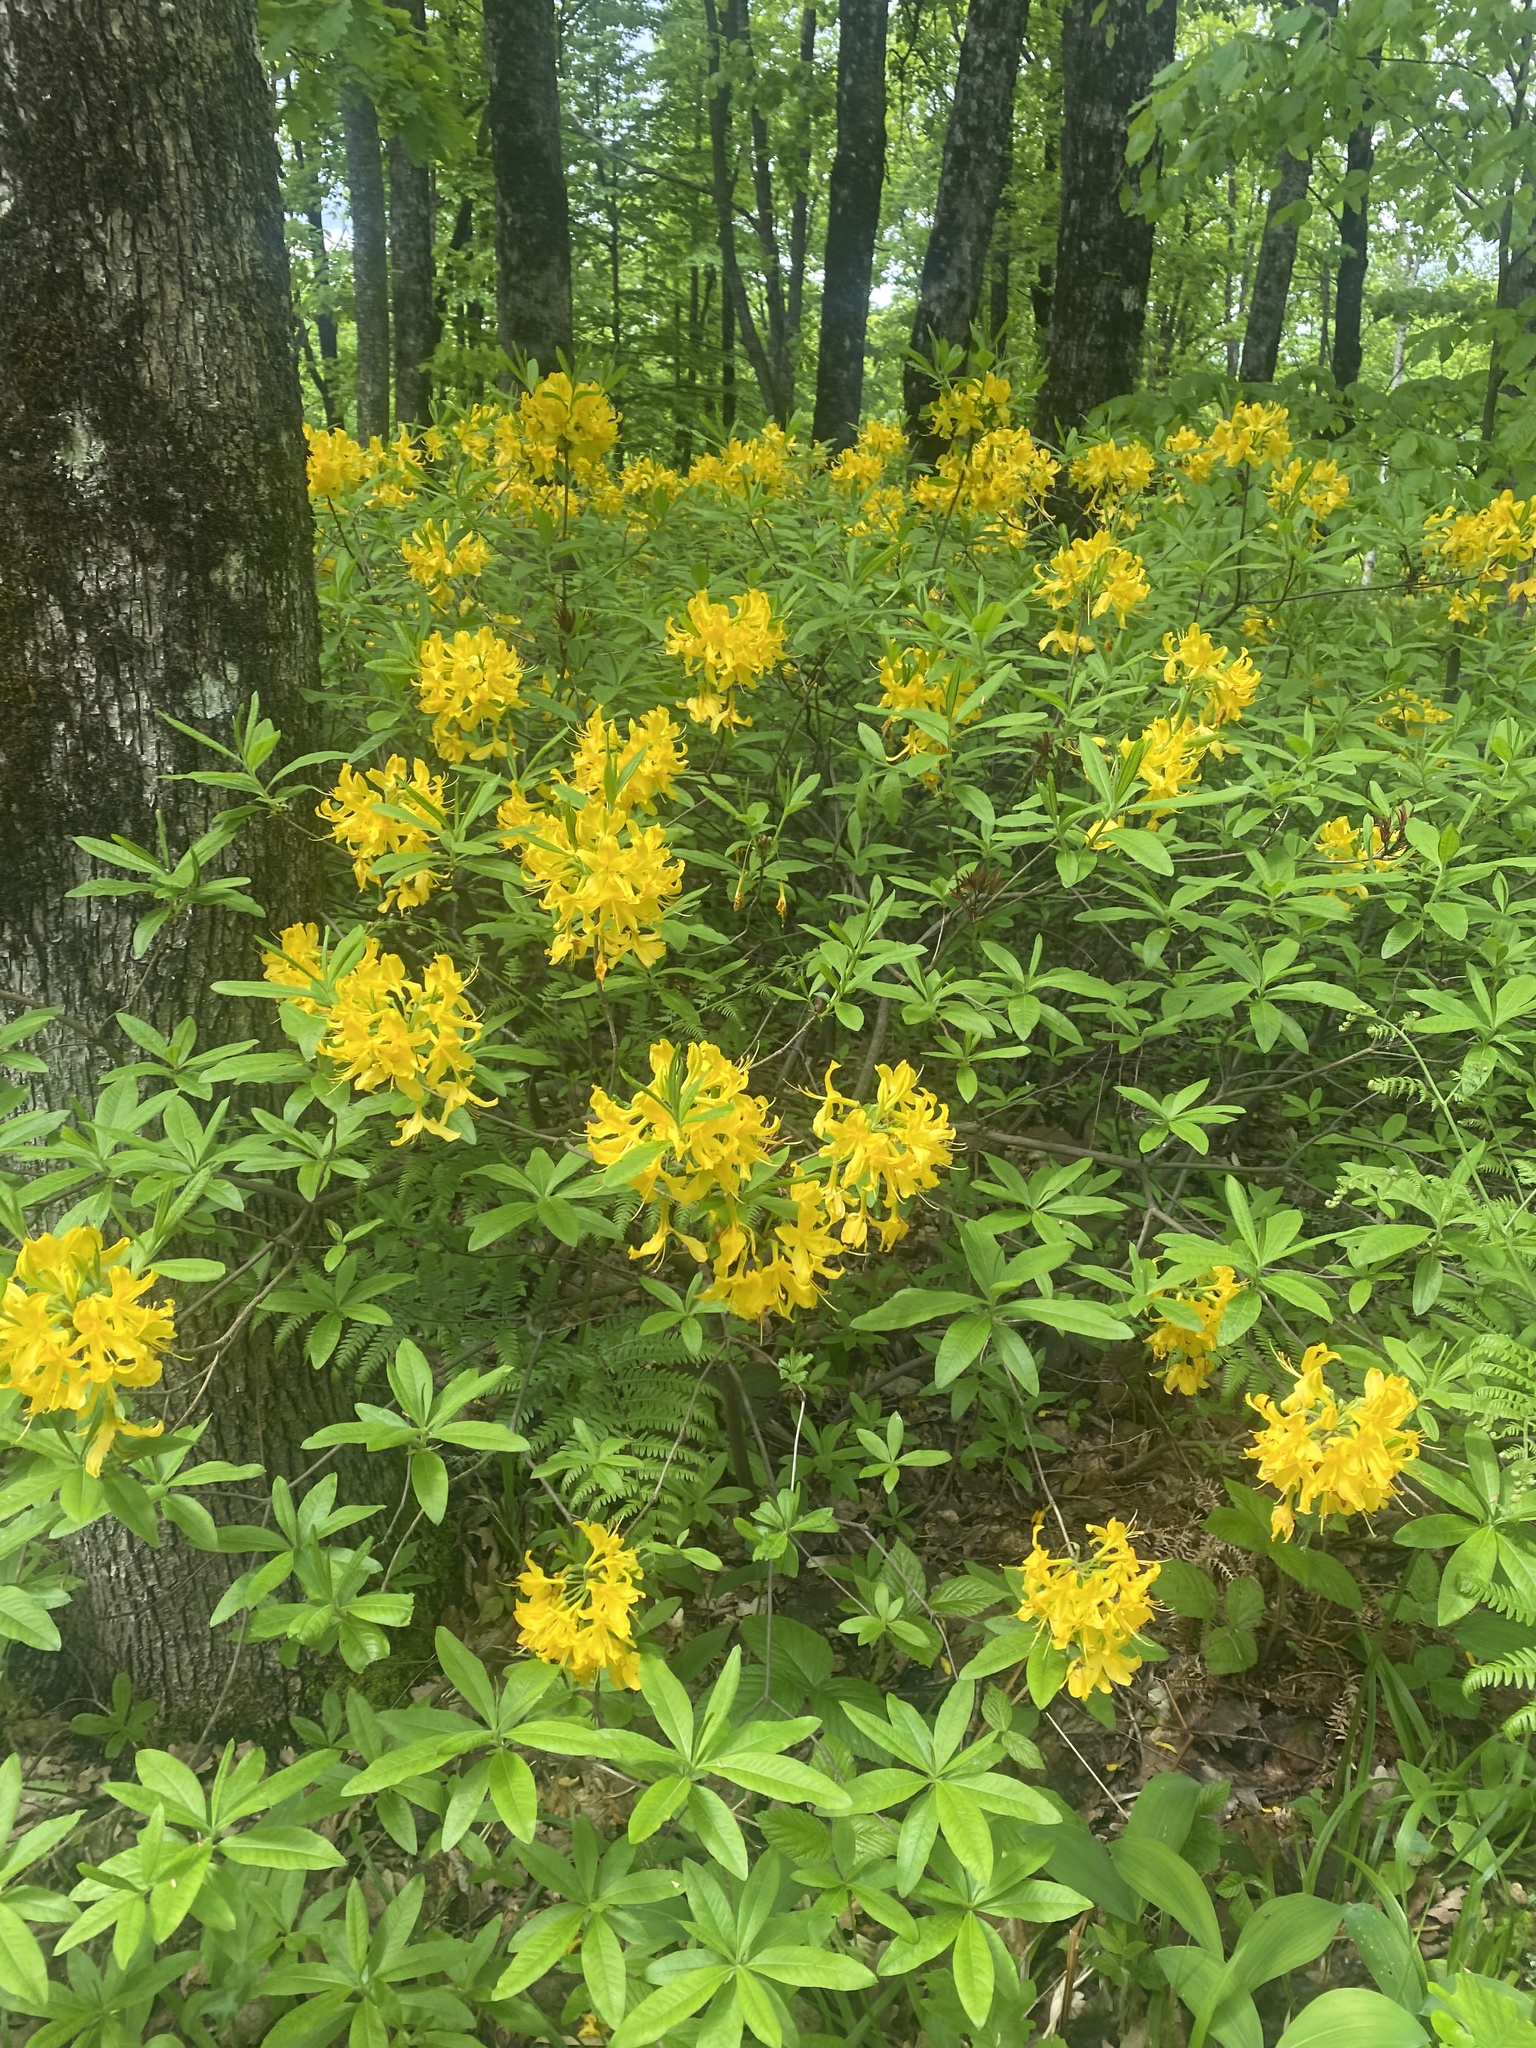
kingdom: Plantae
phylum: Tracheophyta
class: Magnoliopsida
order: Ericales
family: Ericaceae
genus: Rhododendron
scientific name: Rhododendron luteum
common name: Yellow azalea
